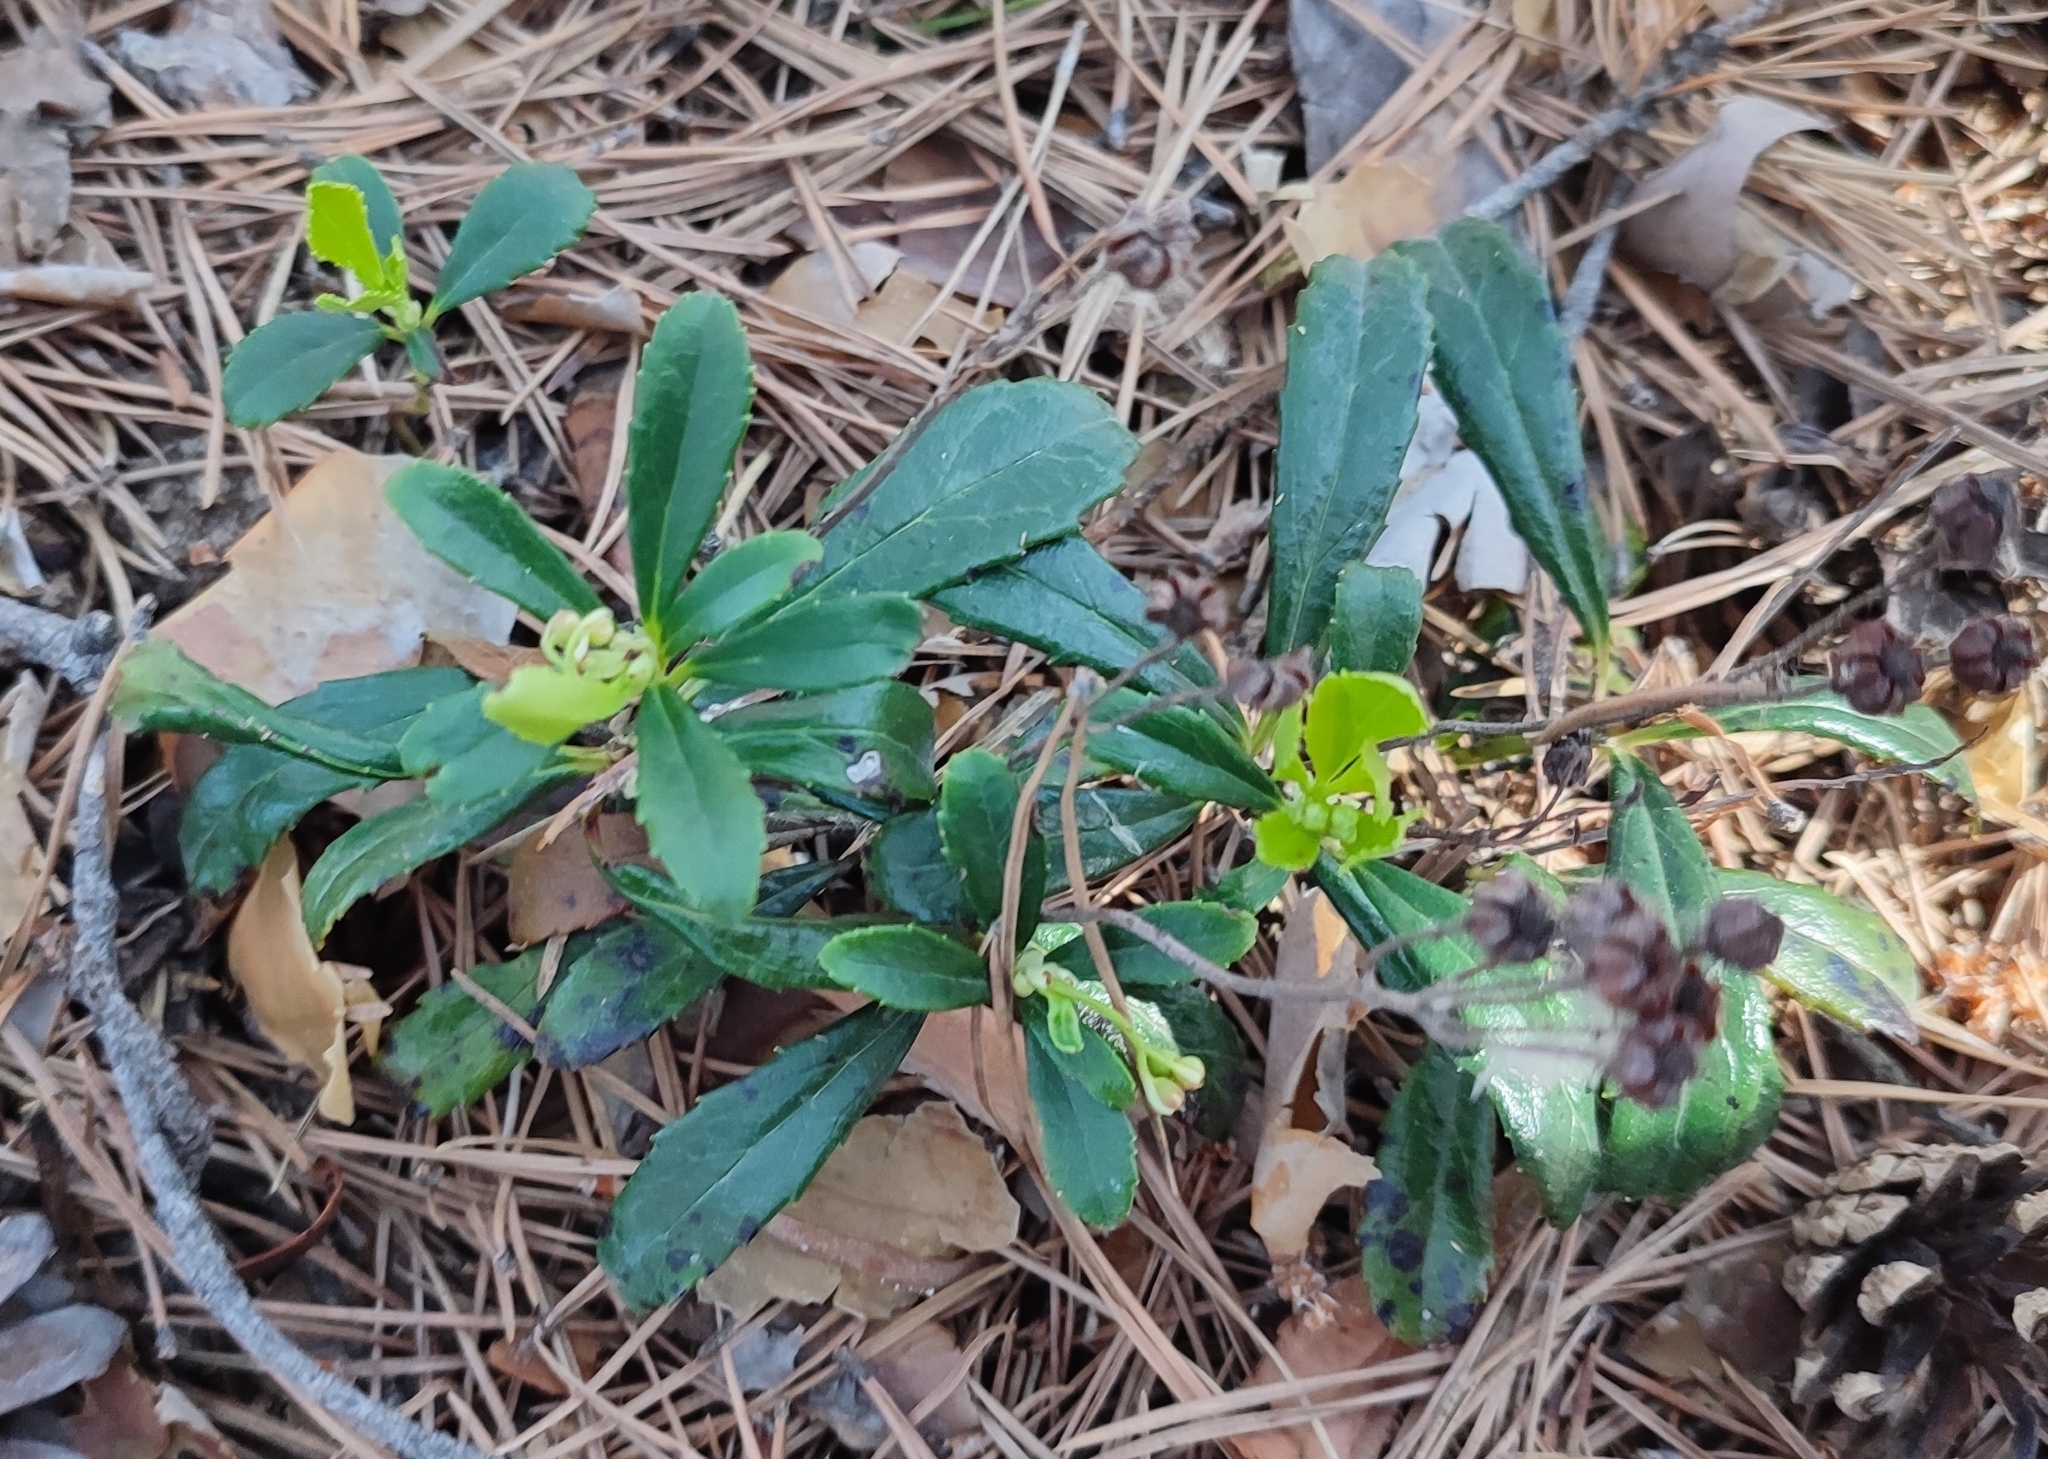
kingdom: Plantae
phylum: Tracheophyta
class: Magnoliopsida
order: Ericales
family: Ericaceae
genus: Chimaphila
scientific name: Chimaphila umbellata
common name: Pipsissewa
